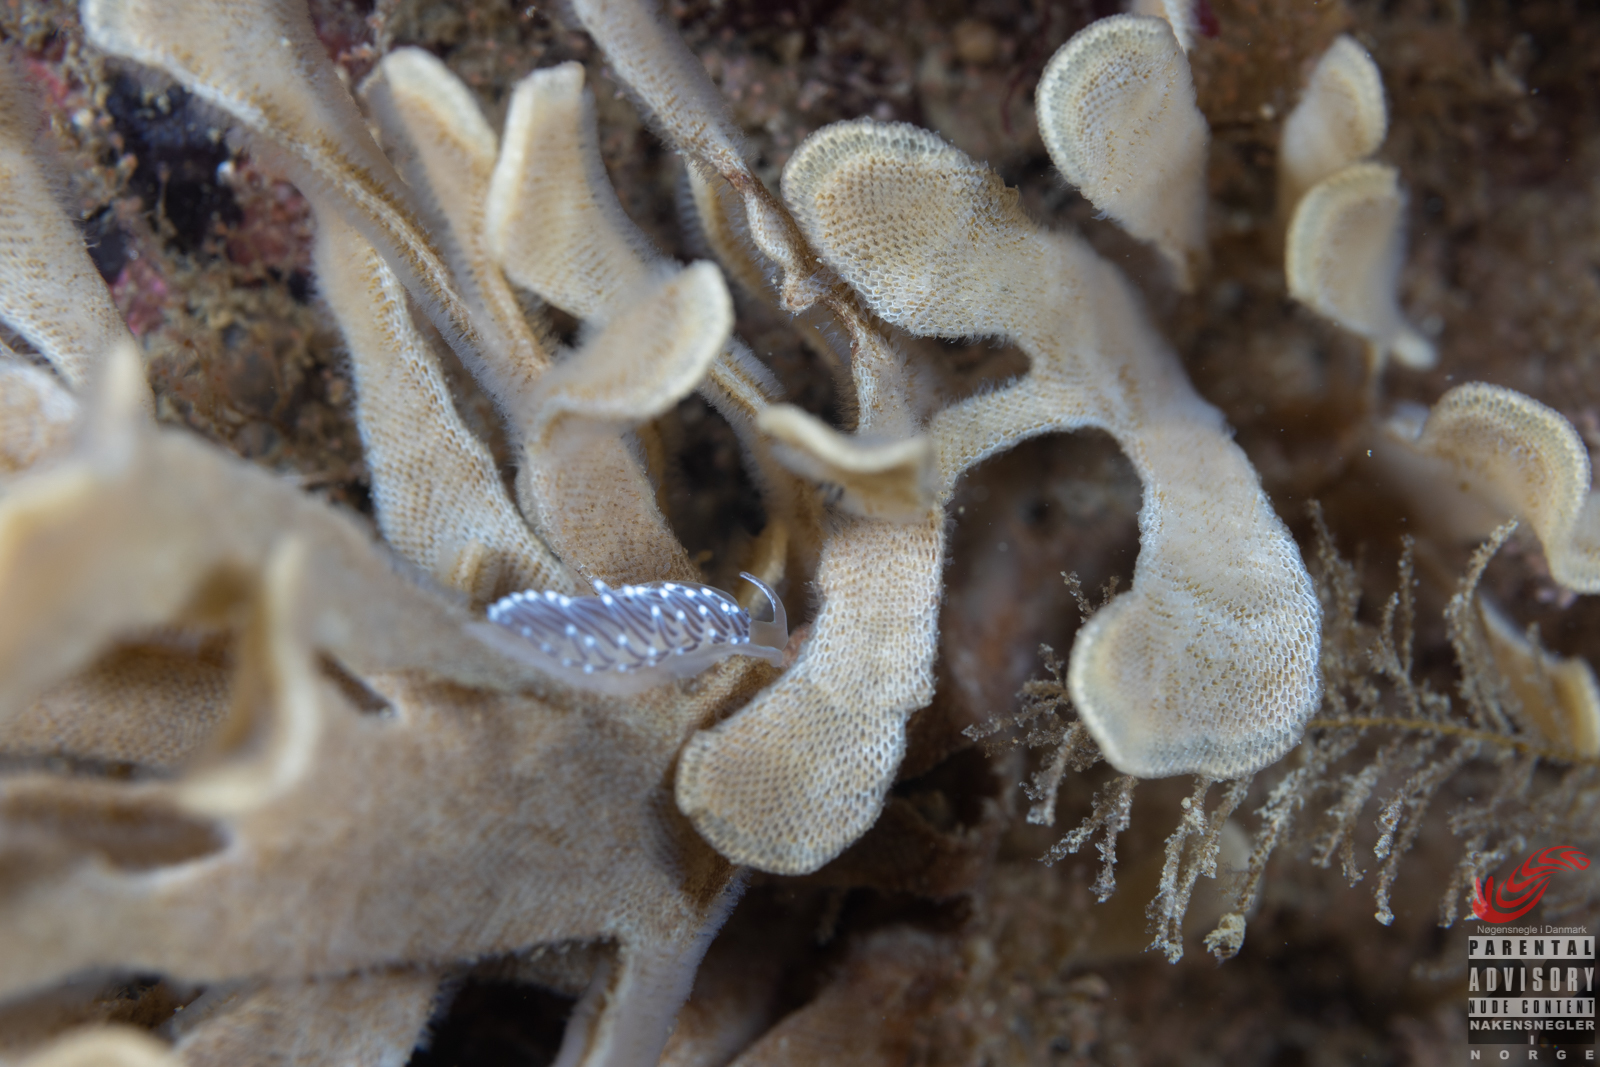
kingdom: Animalia
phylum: Mollusca
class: Gastropoda
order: Nudibranchia
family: Cuthonellidae
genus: Cuthonella
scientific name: Cuthonella concinna
